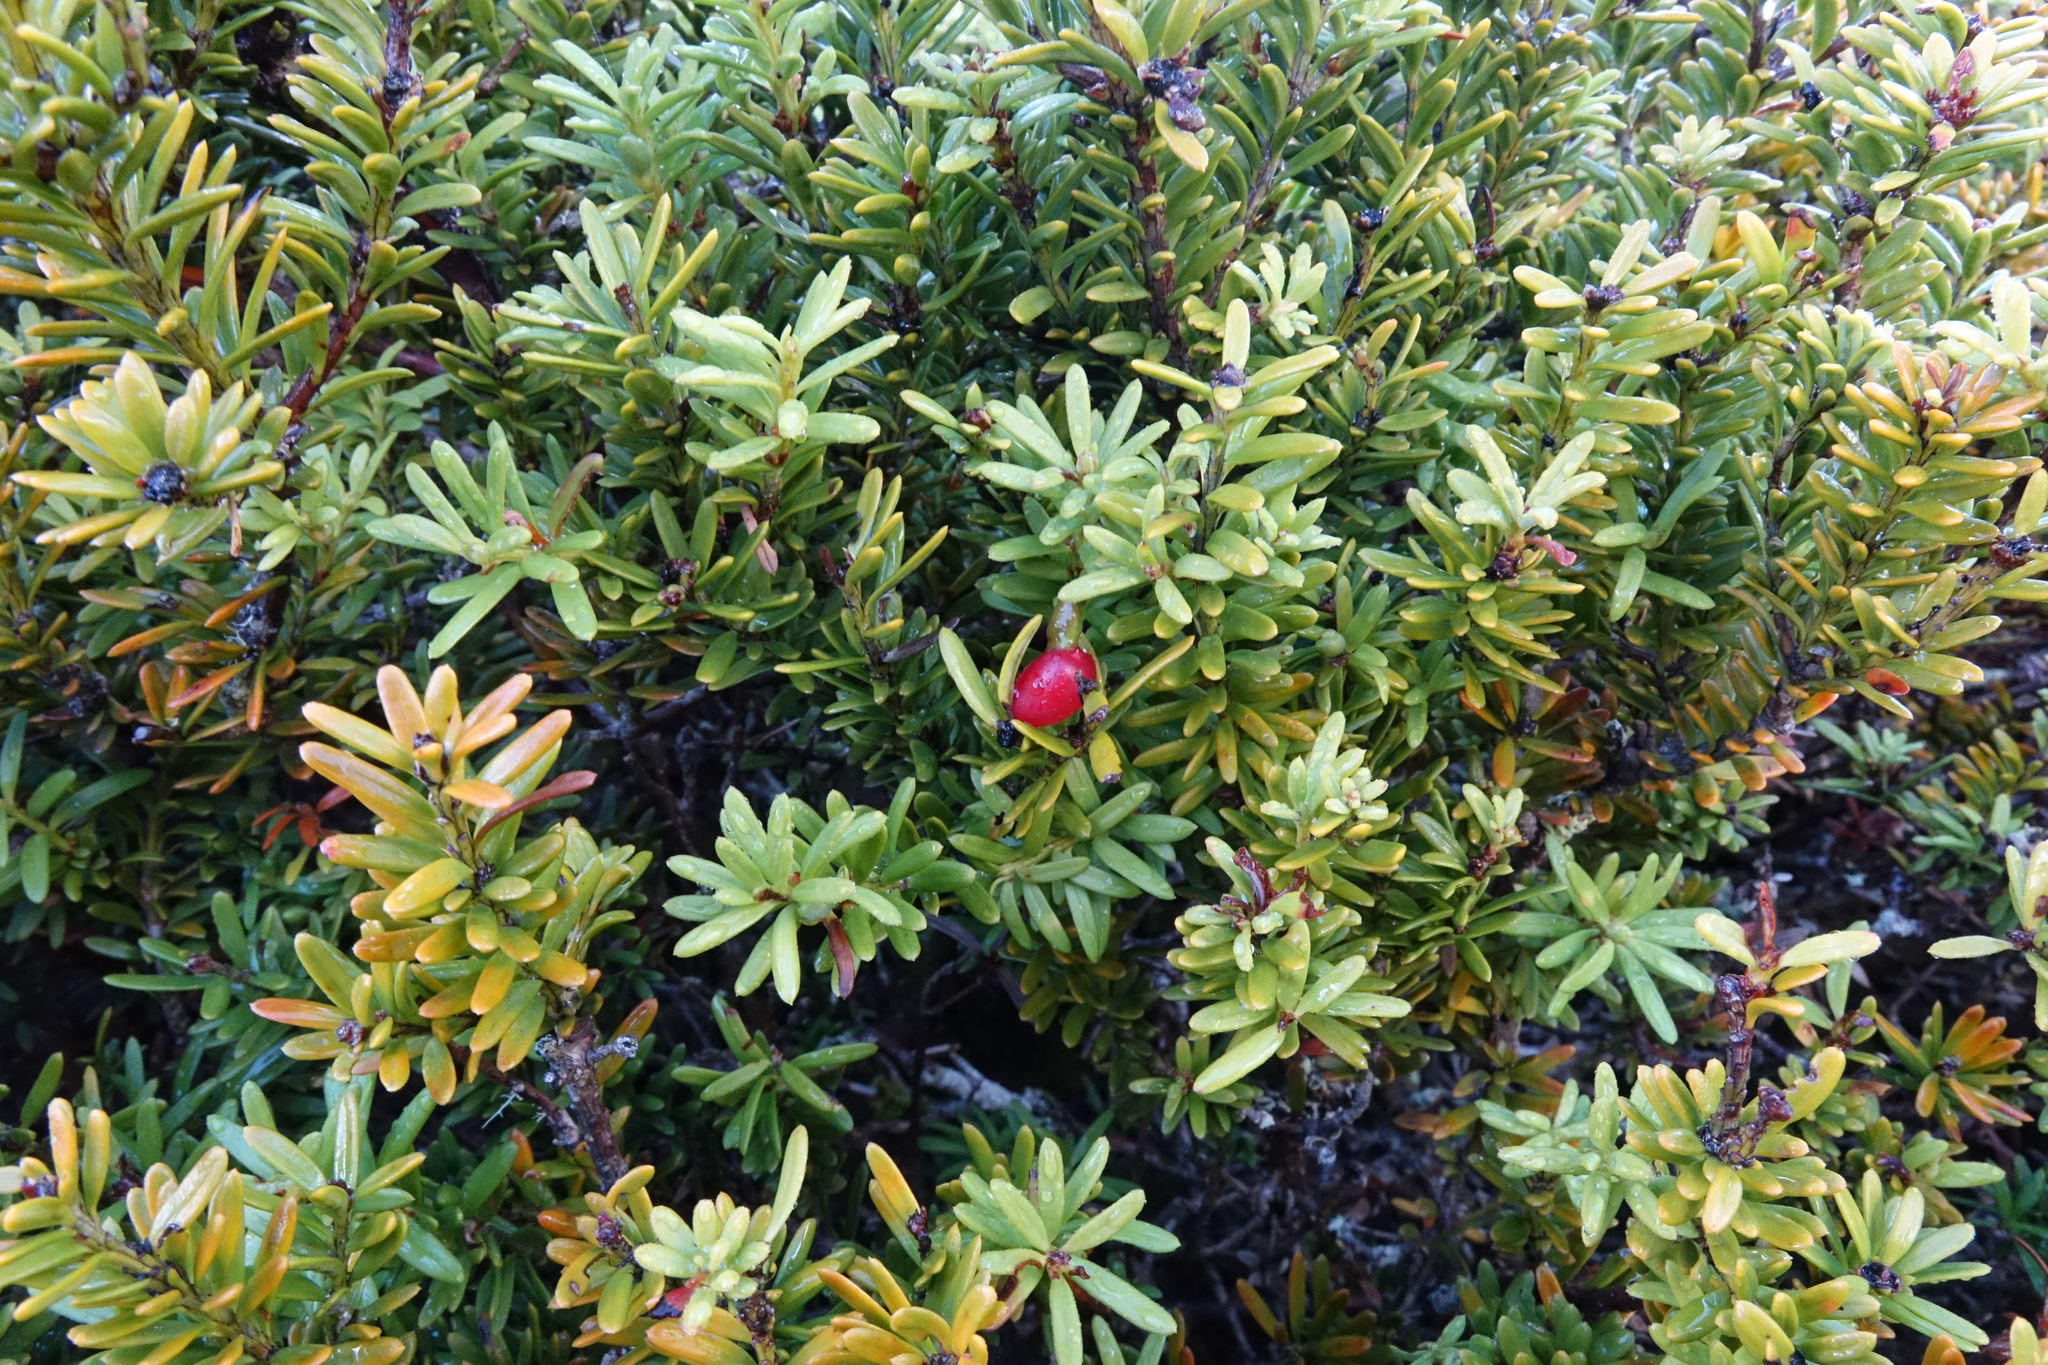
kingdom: Plantae
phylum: Tracheophyta
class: Pinopsida
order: Pinales
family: Podocarpaceae
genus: Podocarpus
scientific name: Podocarpus nivalis
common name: Alpine totara
